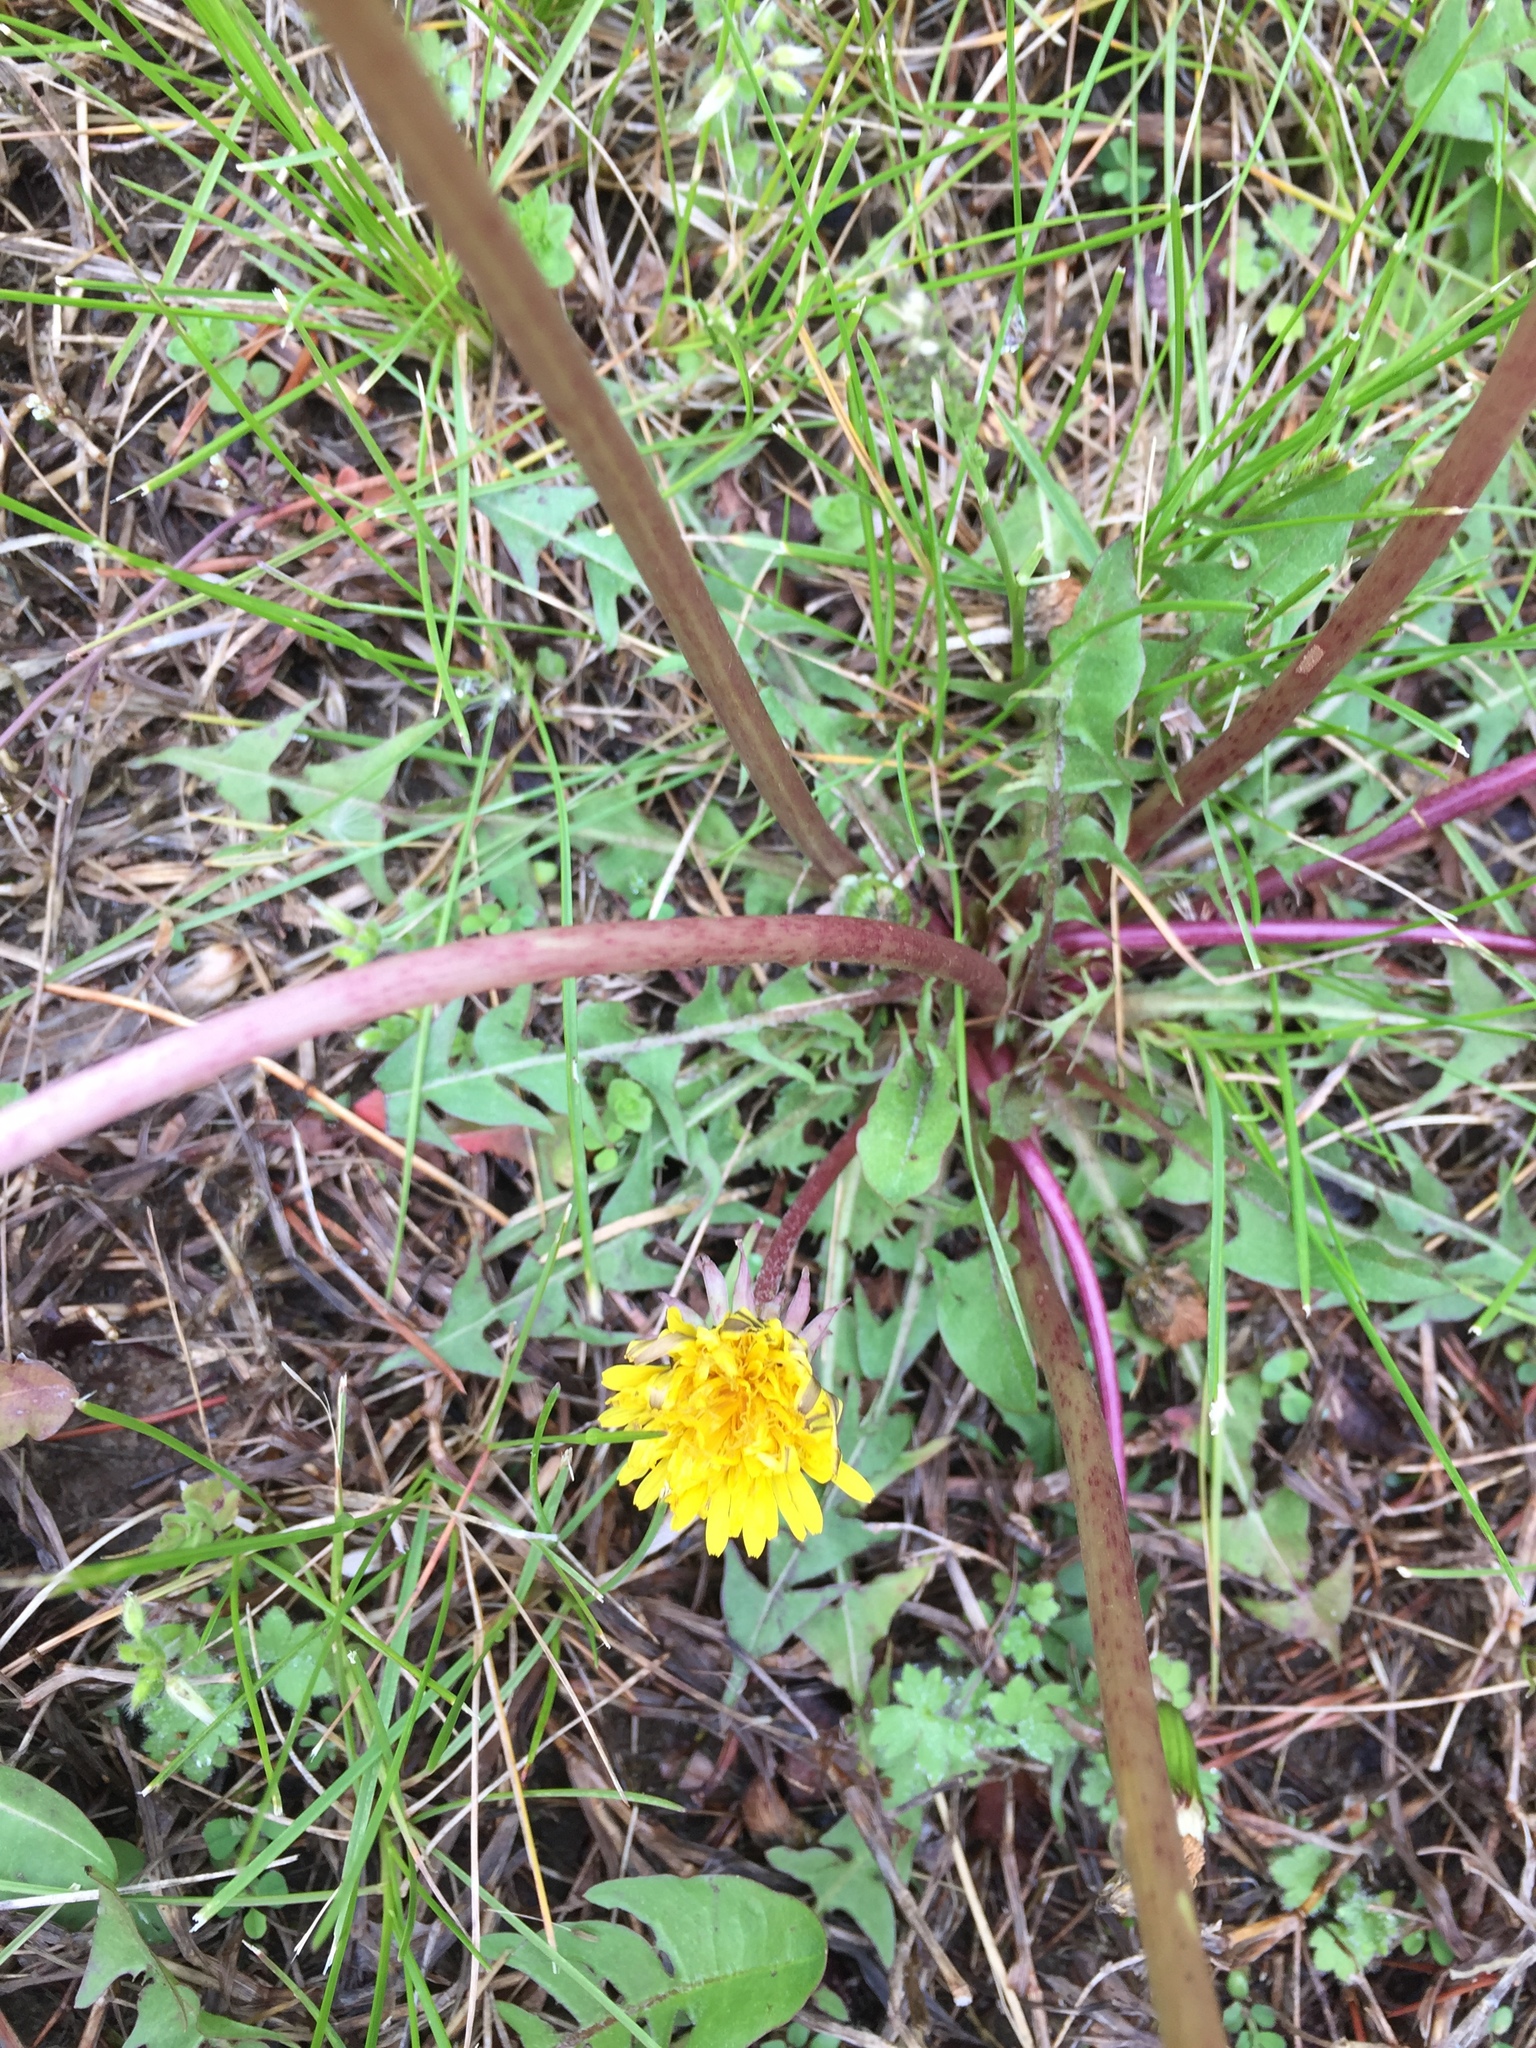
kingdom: Plantae
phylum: Tracheophyta
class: Magnoliopsida
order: Asterales
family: Asteraceae
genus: Taraxacum
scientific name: Taraxacum officinale
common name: Common dandelion
